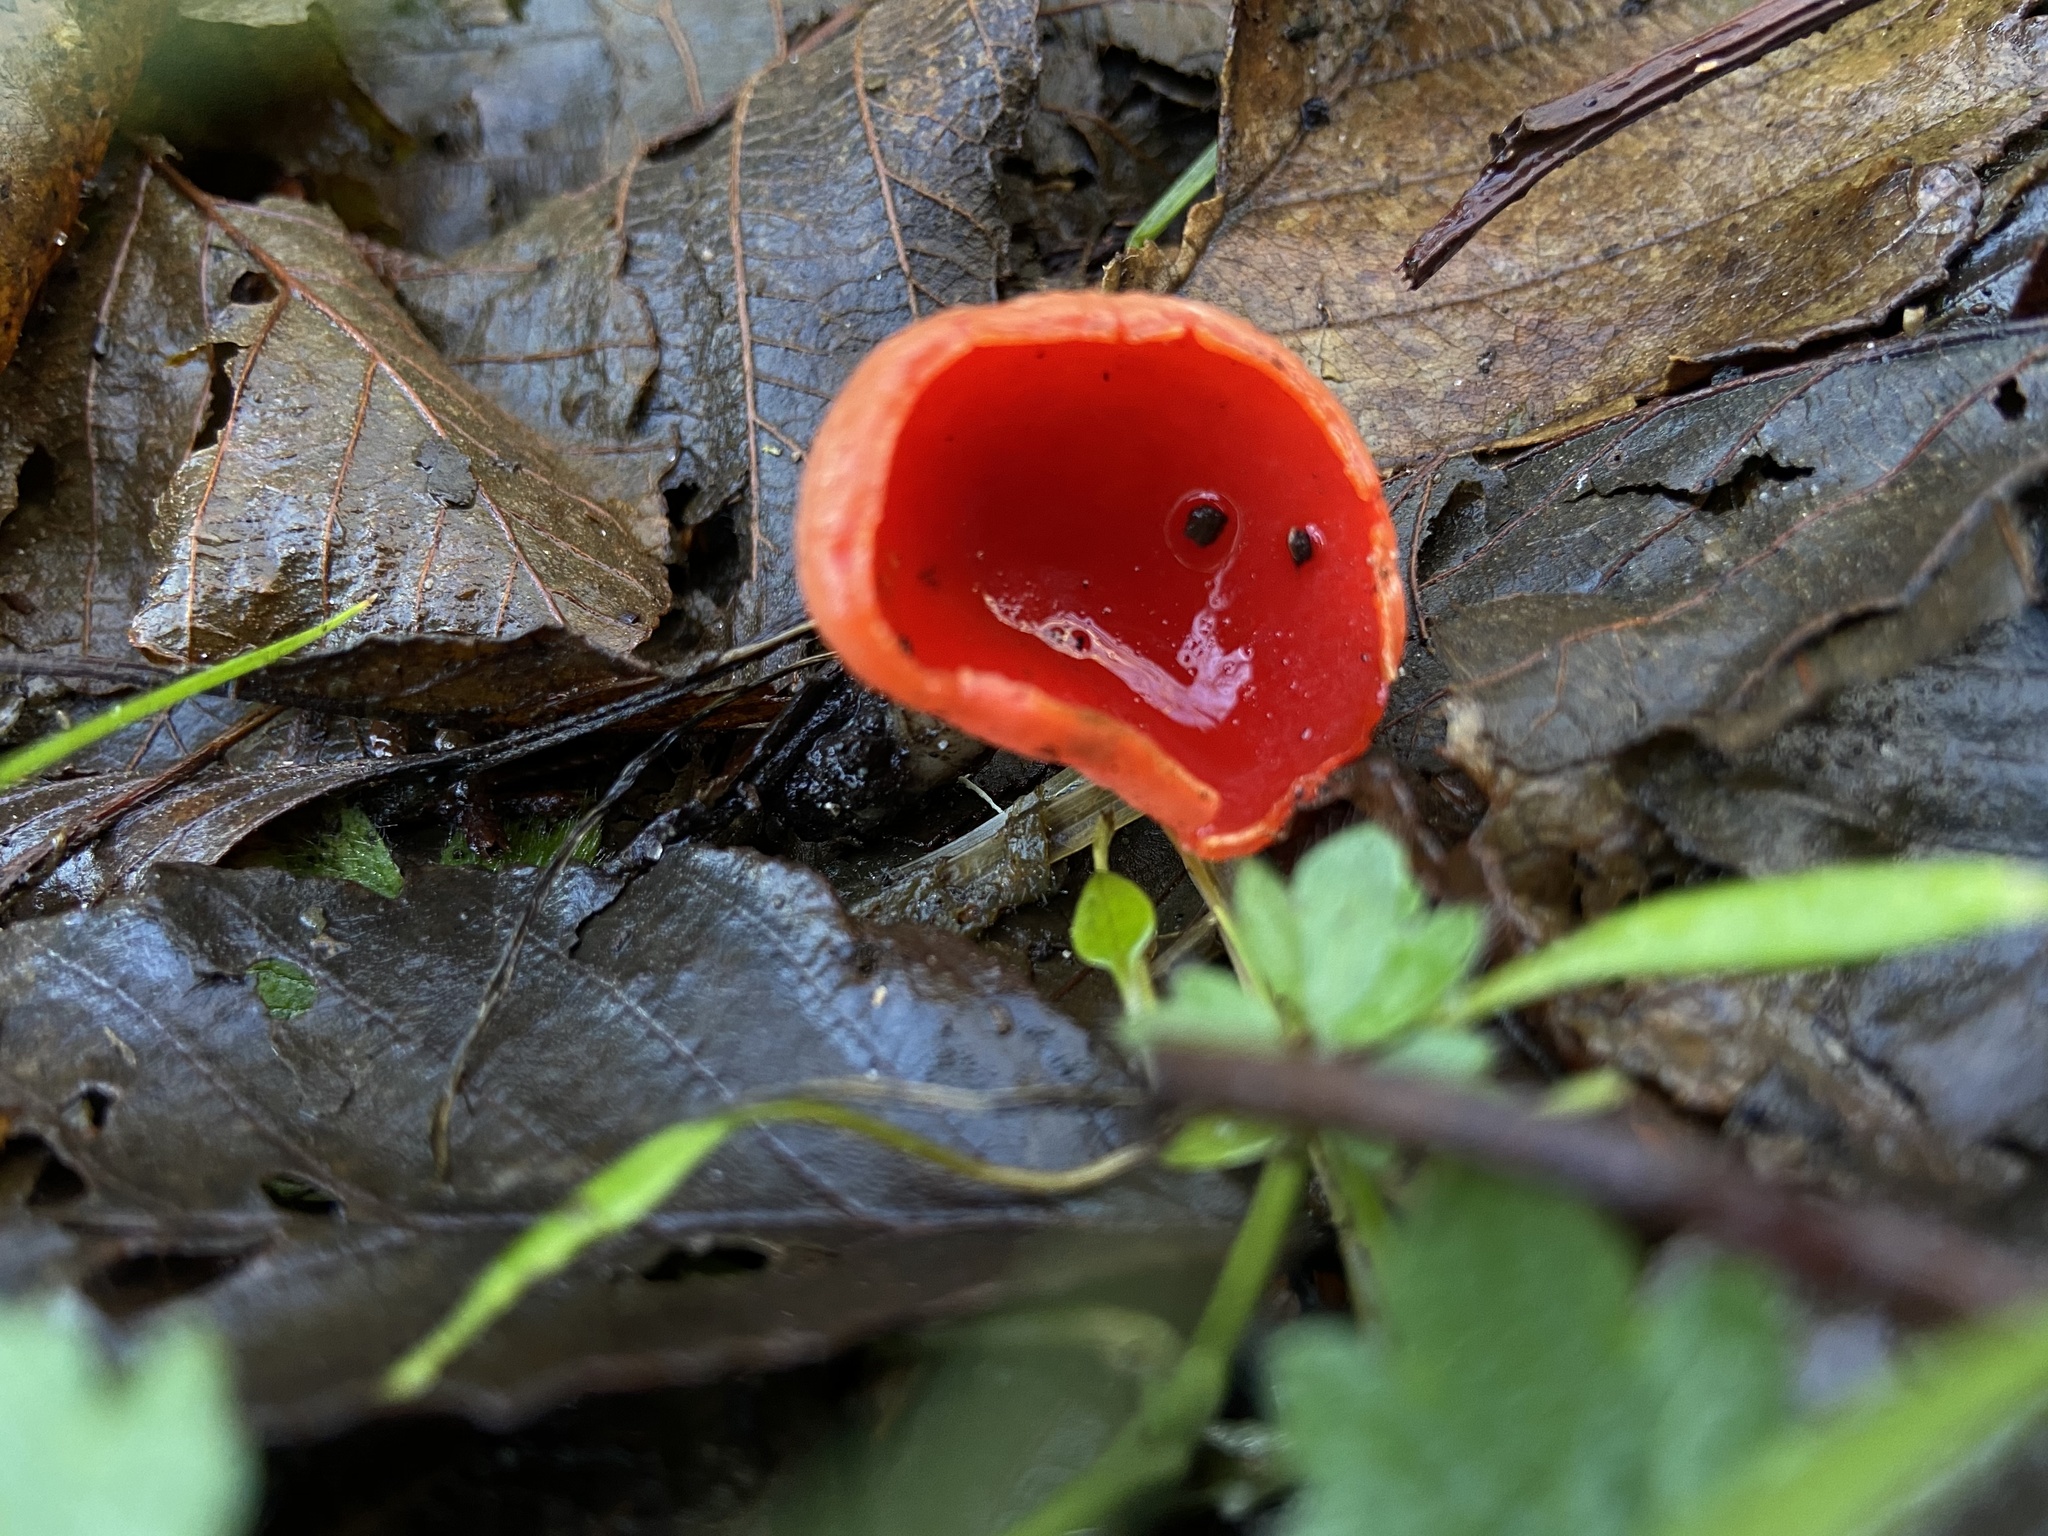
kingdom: Fungi
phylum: Ascomycota
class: Pezizomycetes
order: Pezizales
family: Sarcoscyphaceae
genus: Sarcoscypha
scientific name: Sarcoscypha coccinea
